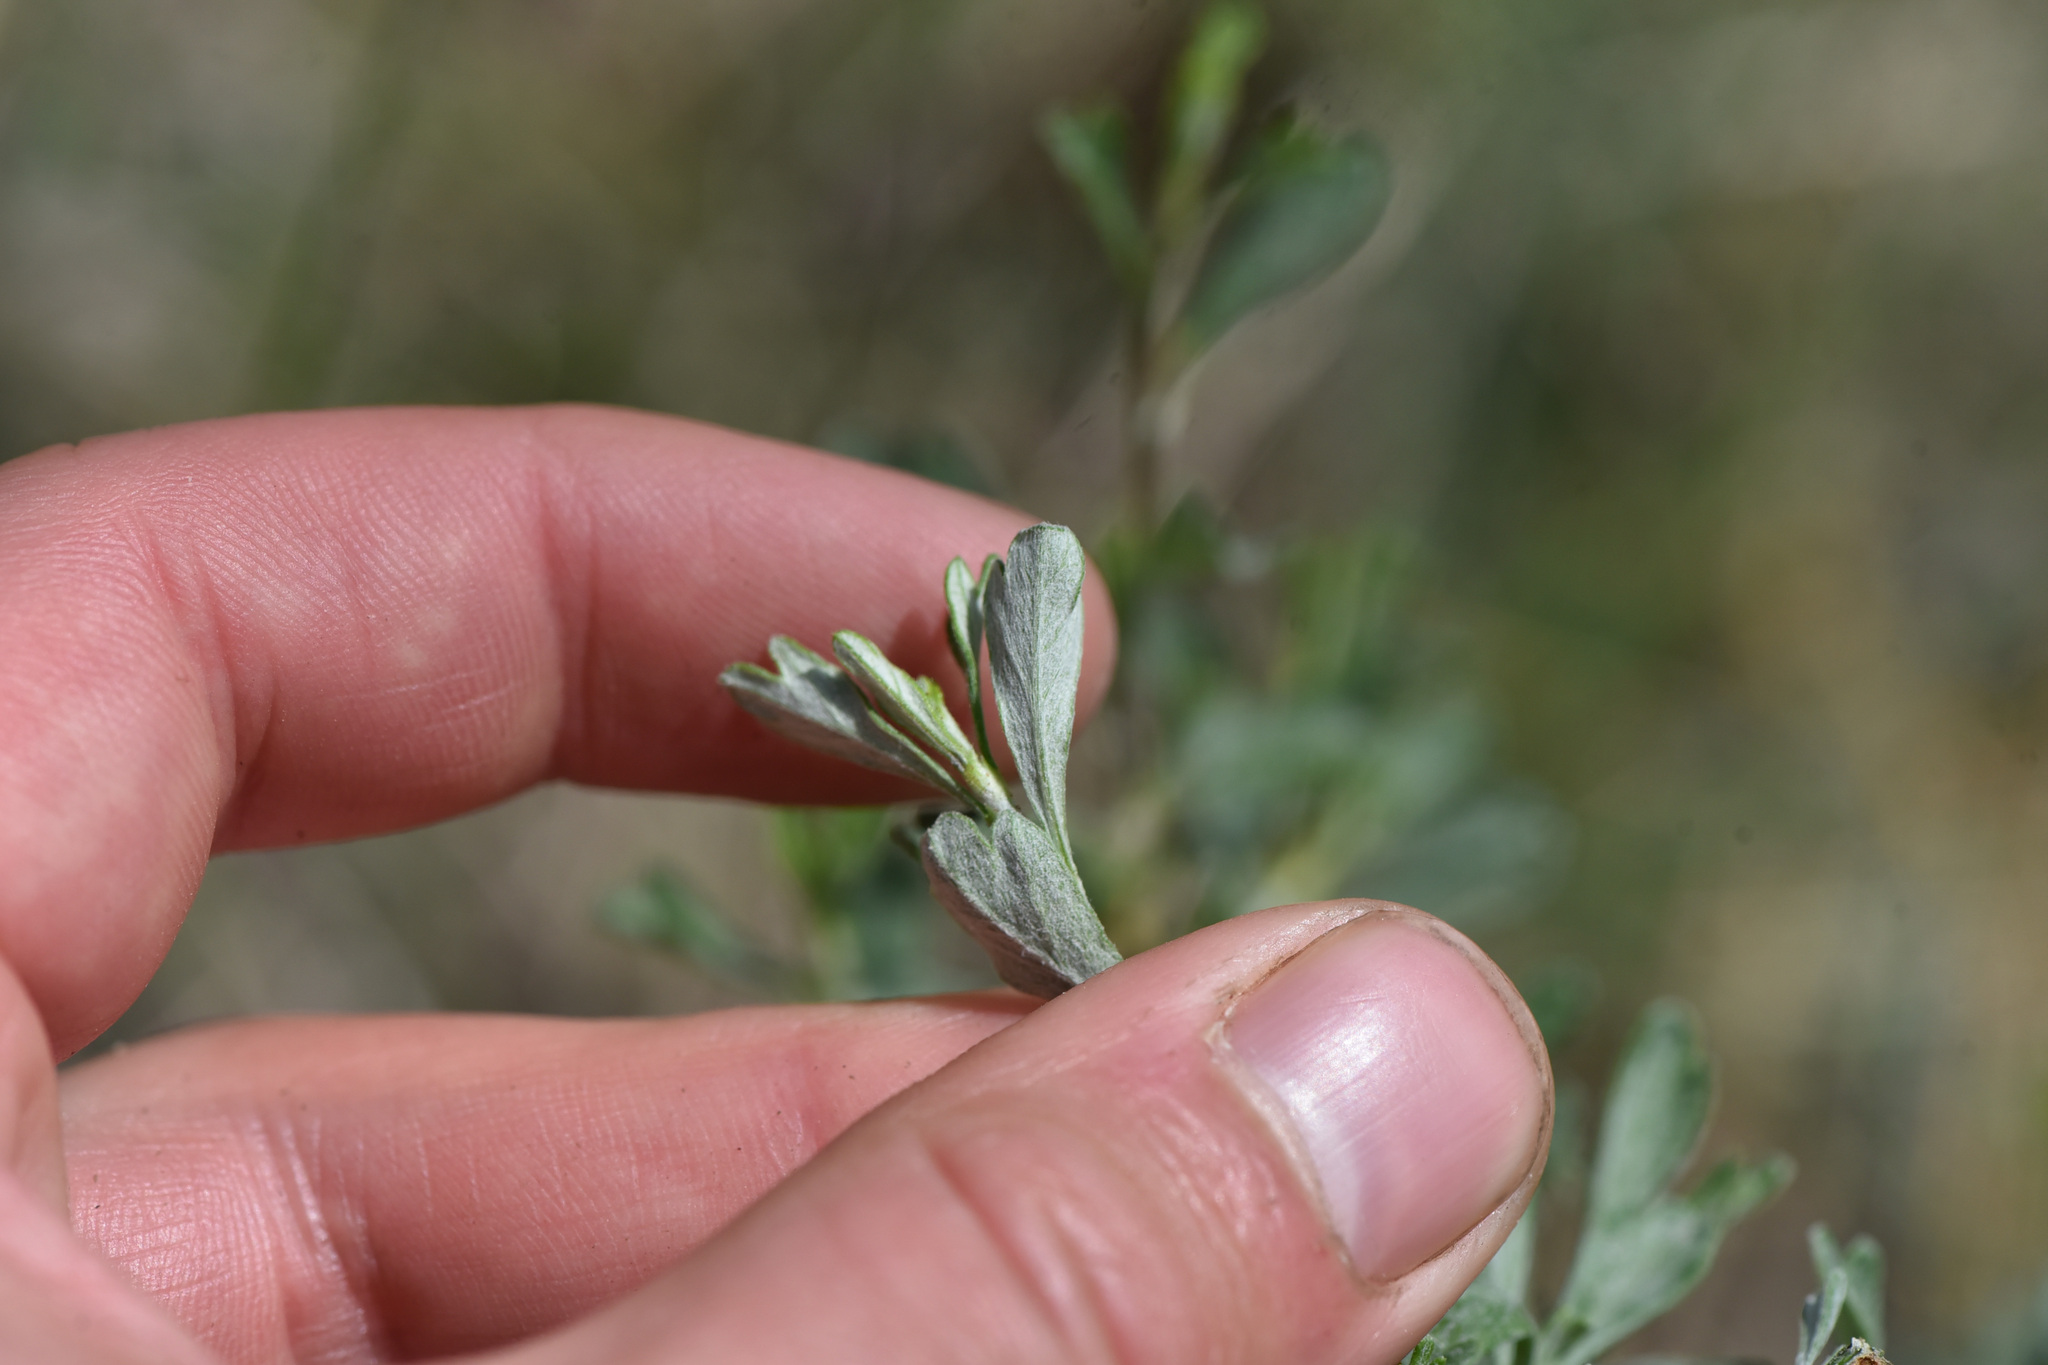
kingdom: Plantae
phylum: Tracheophyta
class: Magnoliopsida
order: Rosales
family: Rosaceae
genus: Purshia
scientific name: Purshia tridentata
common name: Antelope bitterbrush
